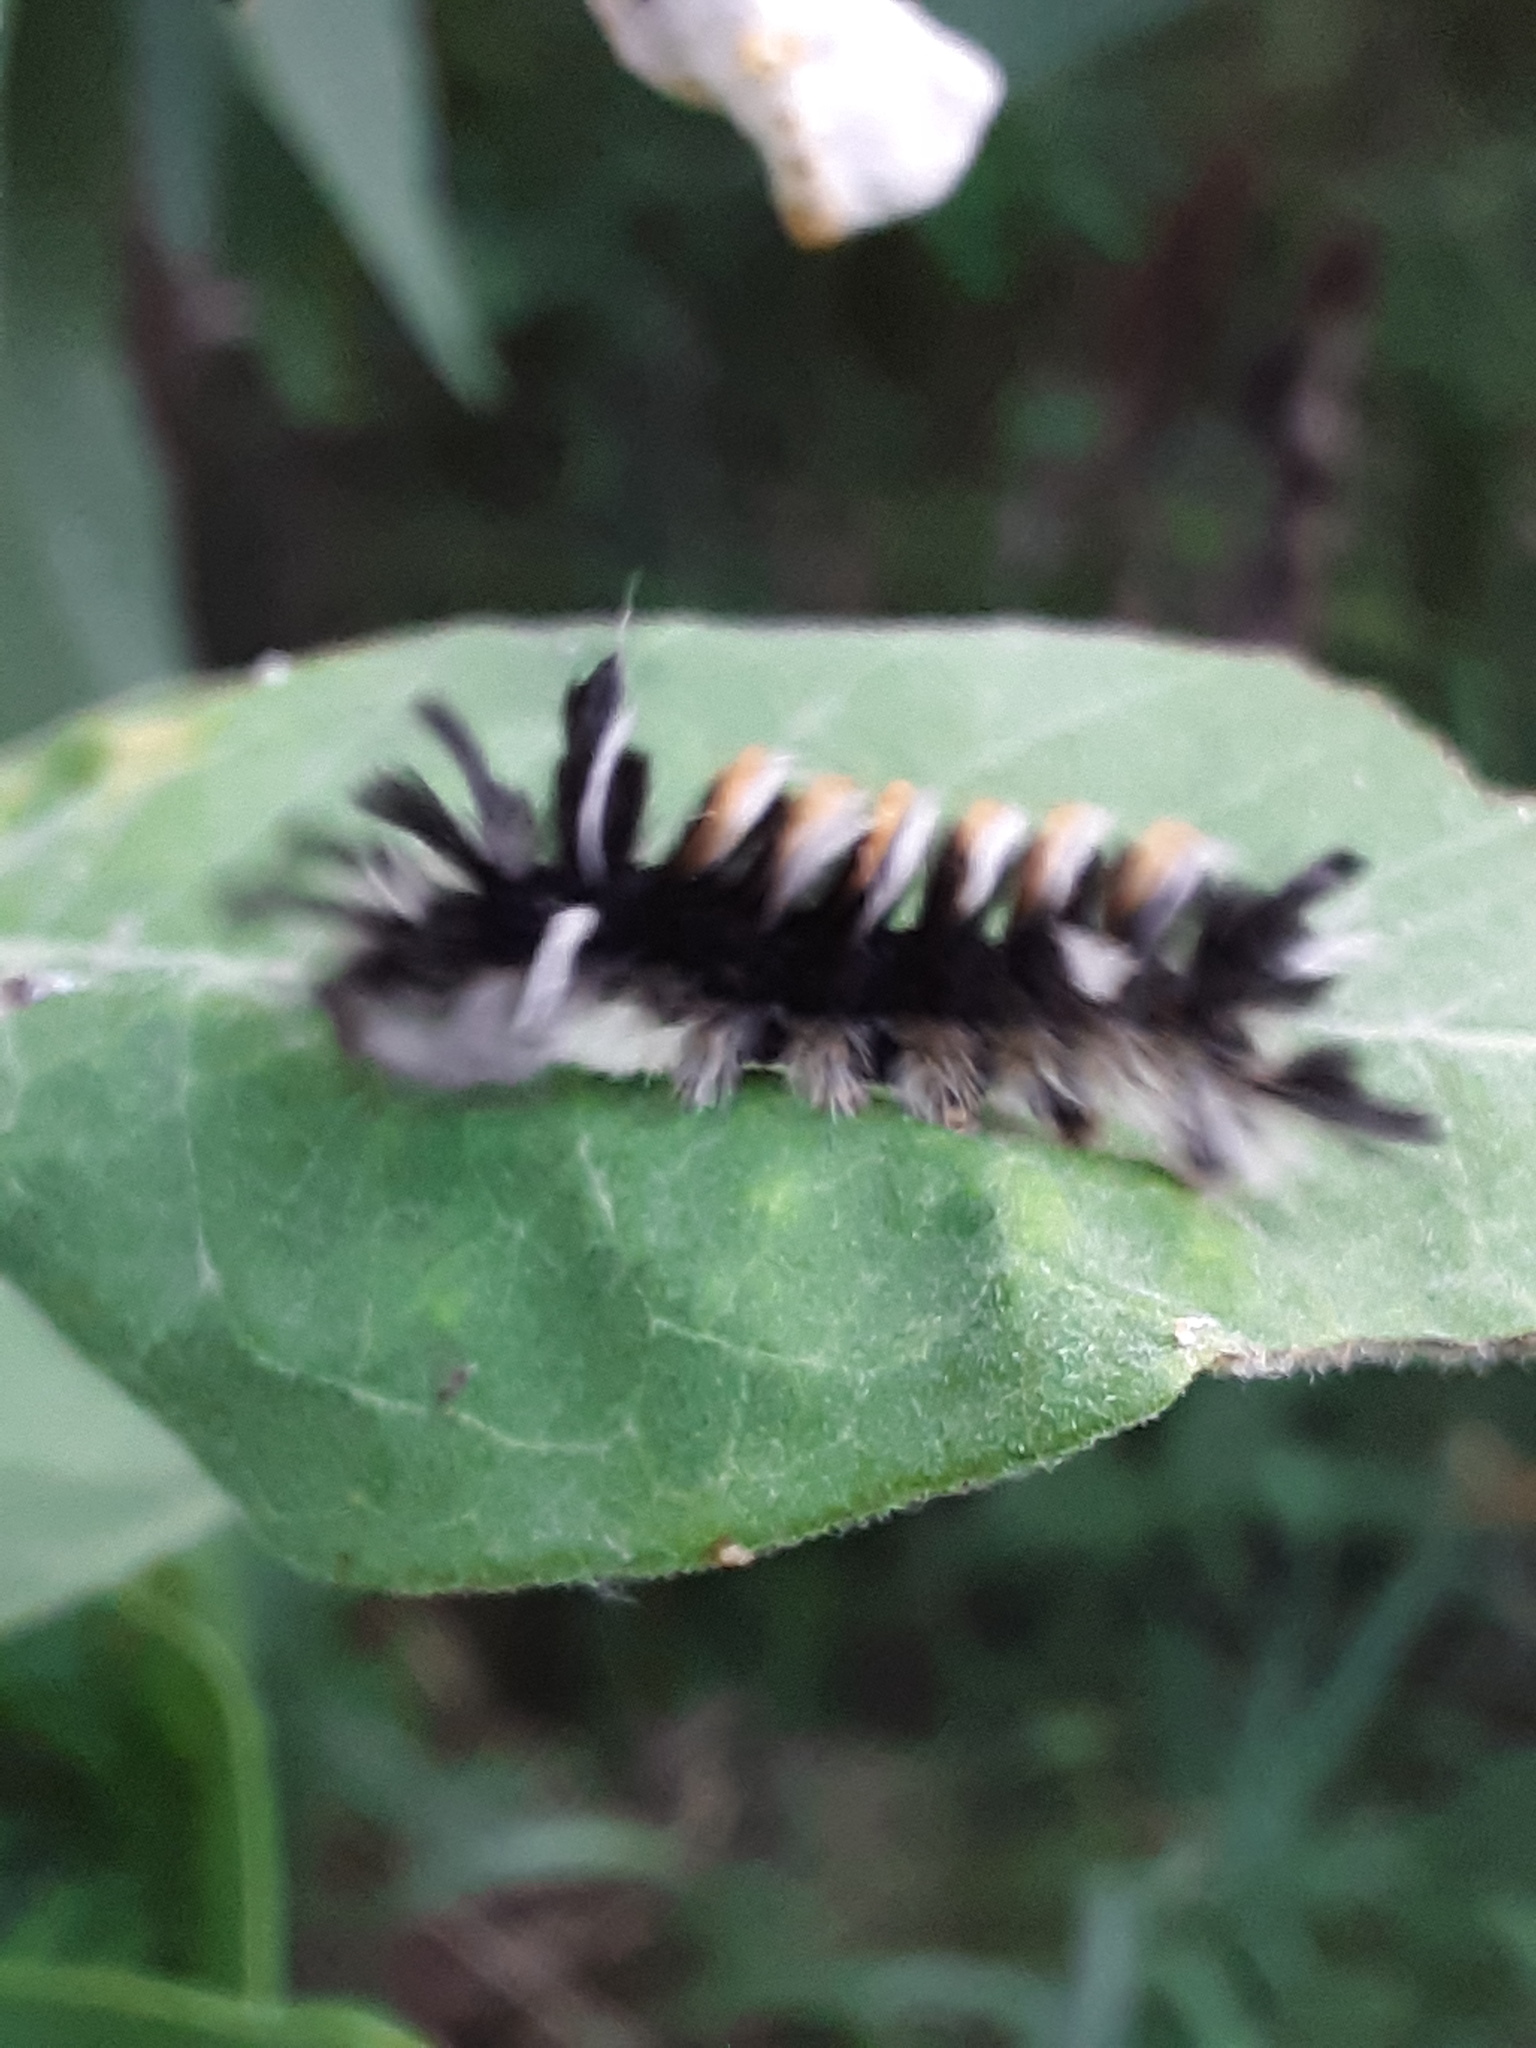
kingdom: Animalia
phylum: Arthropoda
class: Insecta
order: Lepidoptera
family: Erebidae
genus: Euchaetes
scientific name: Euchaetes egle
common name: Milkweed tussock moth
